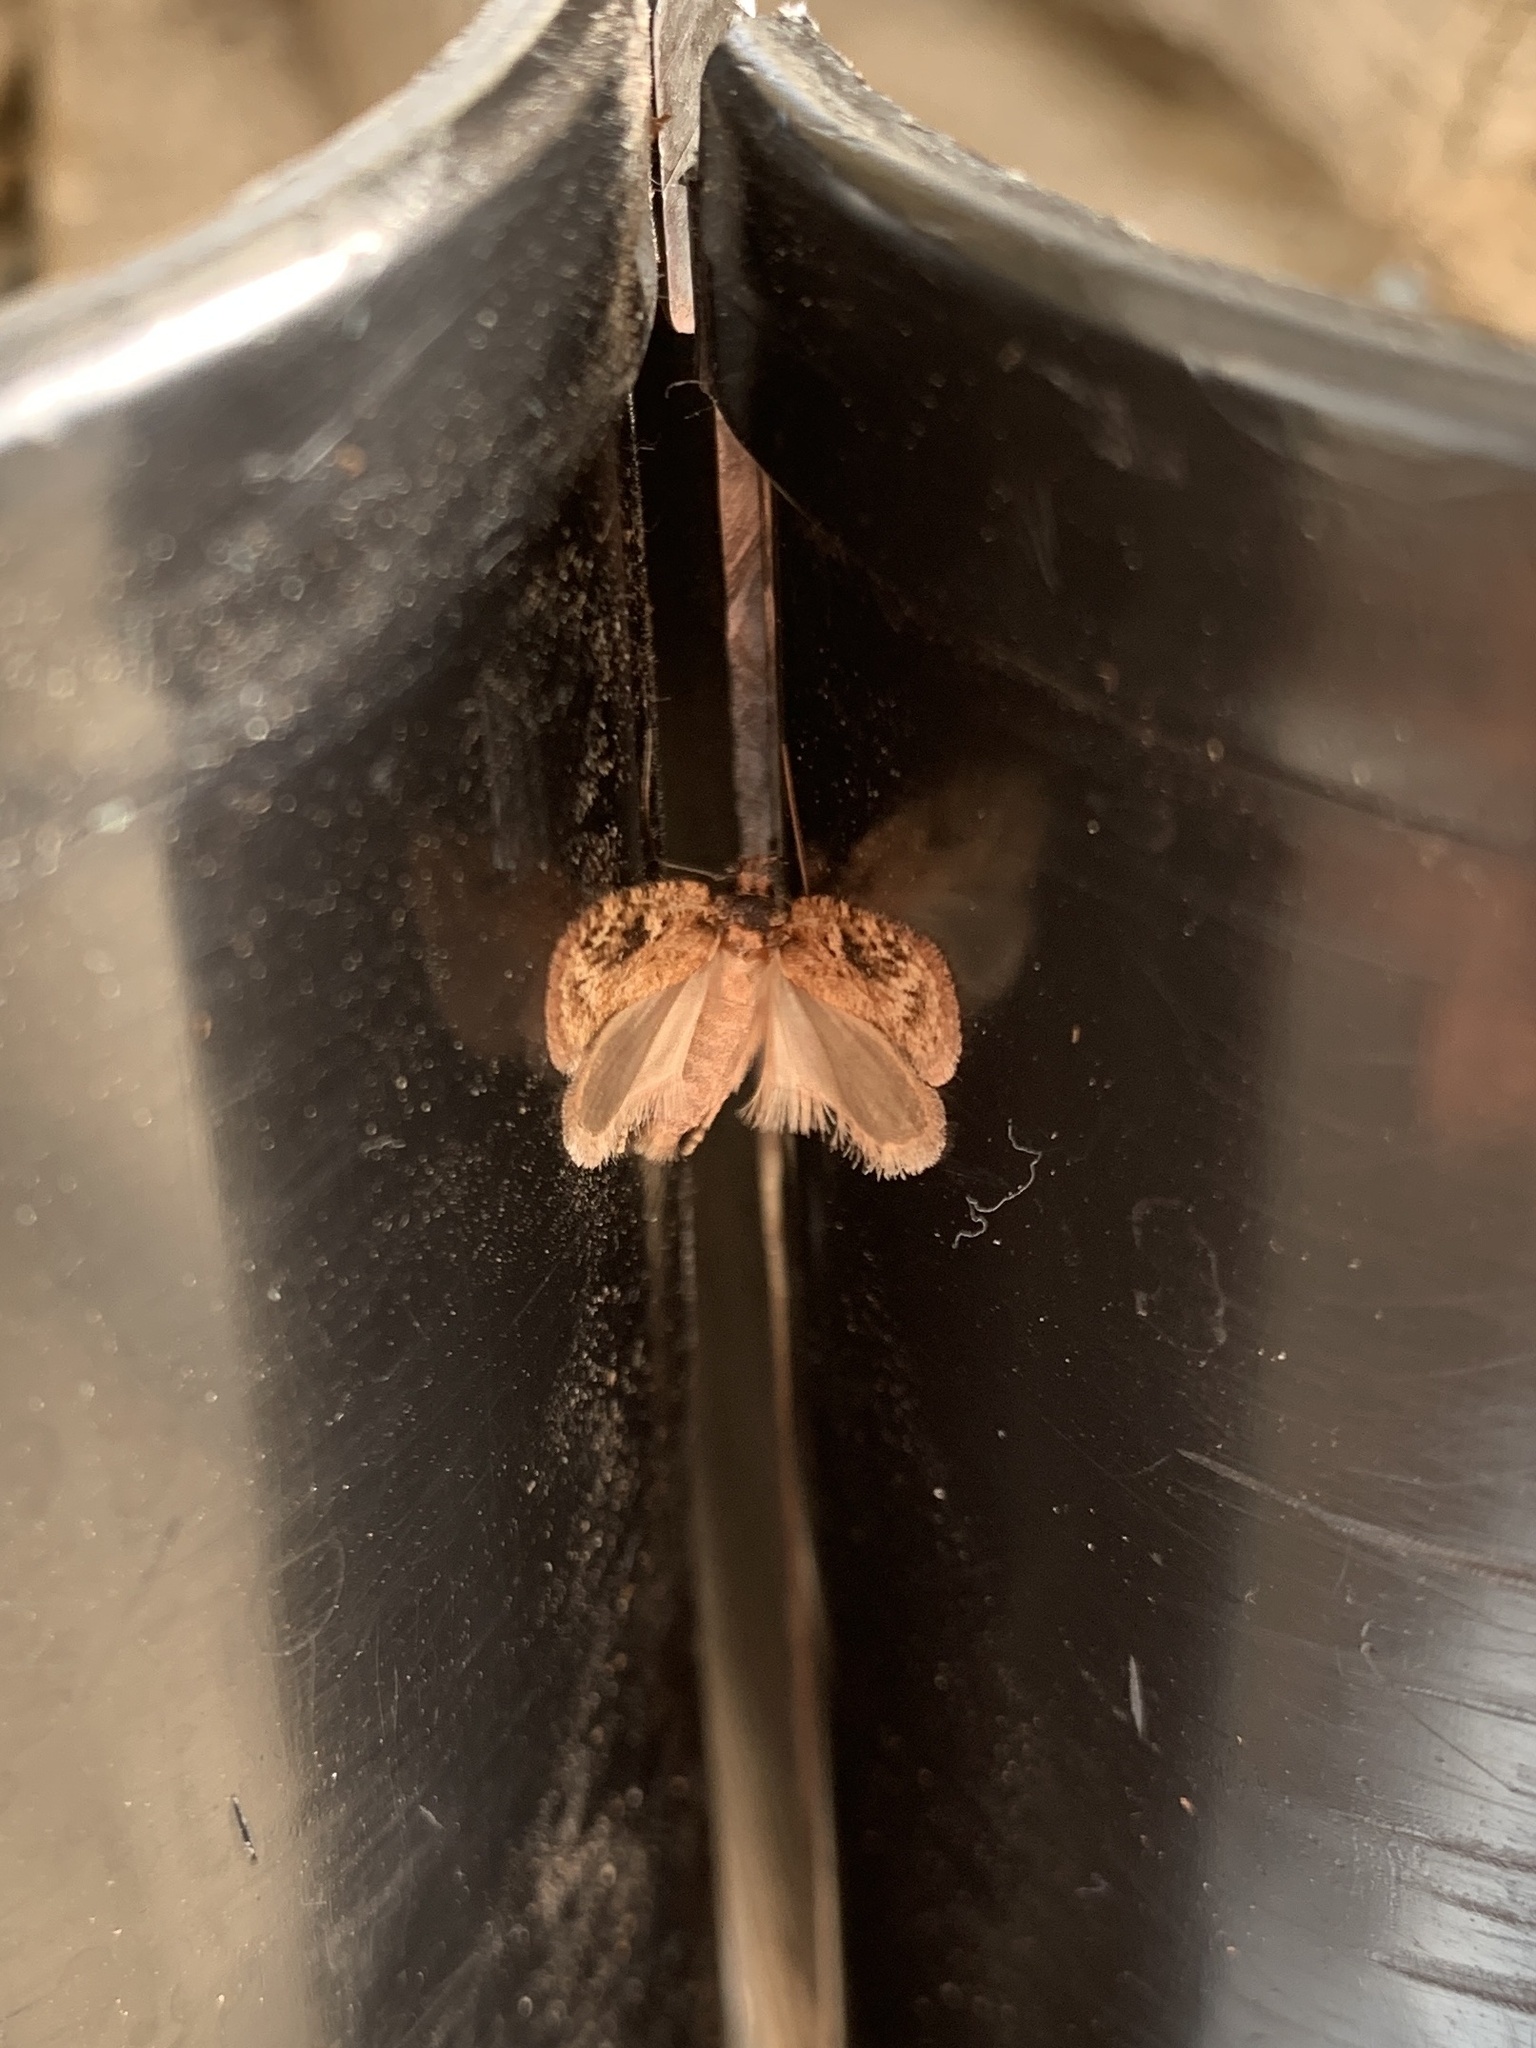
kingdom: Animalia
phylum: Arthropoda
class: Insecta
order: Lepidoptera
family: Depressariidae
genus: Agonopterix
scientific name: Agonopterix pulvipennella
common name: Goldenrod leafffolder
